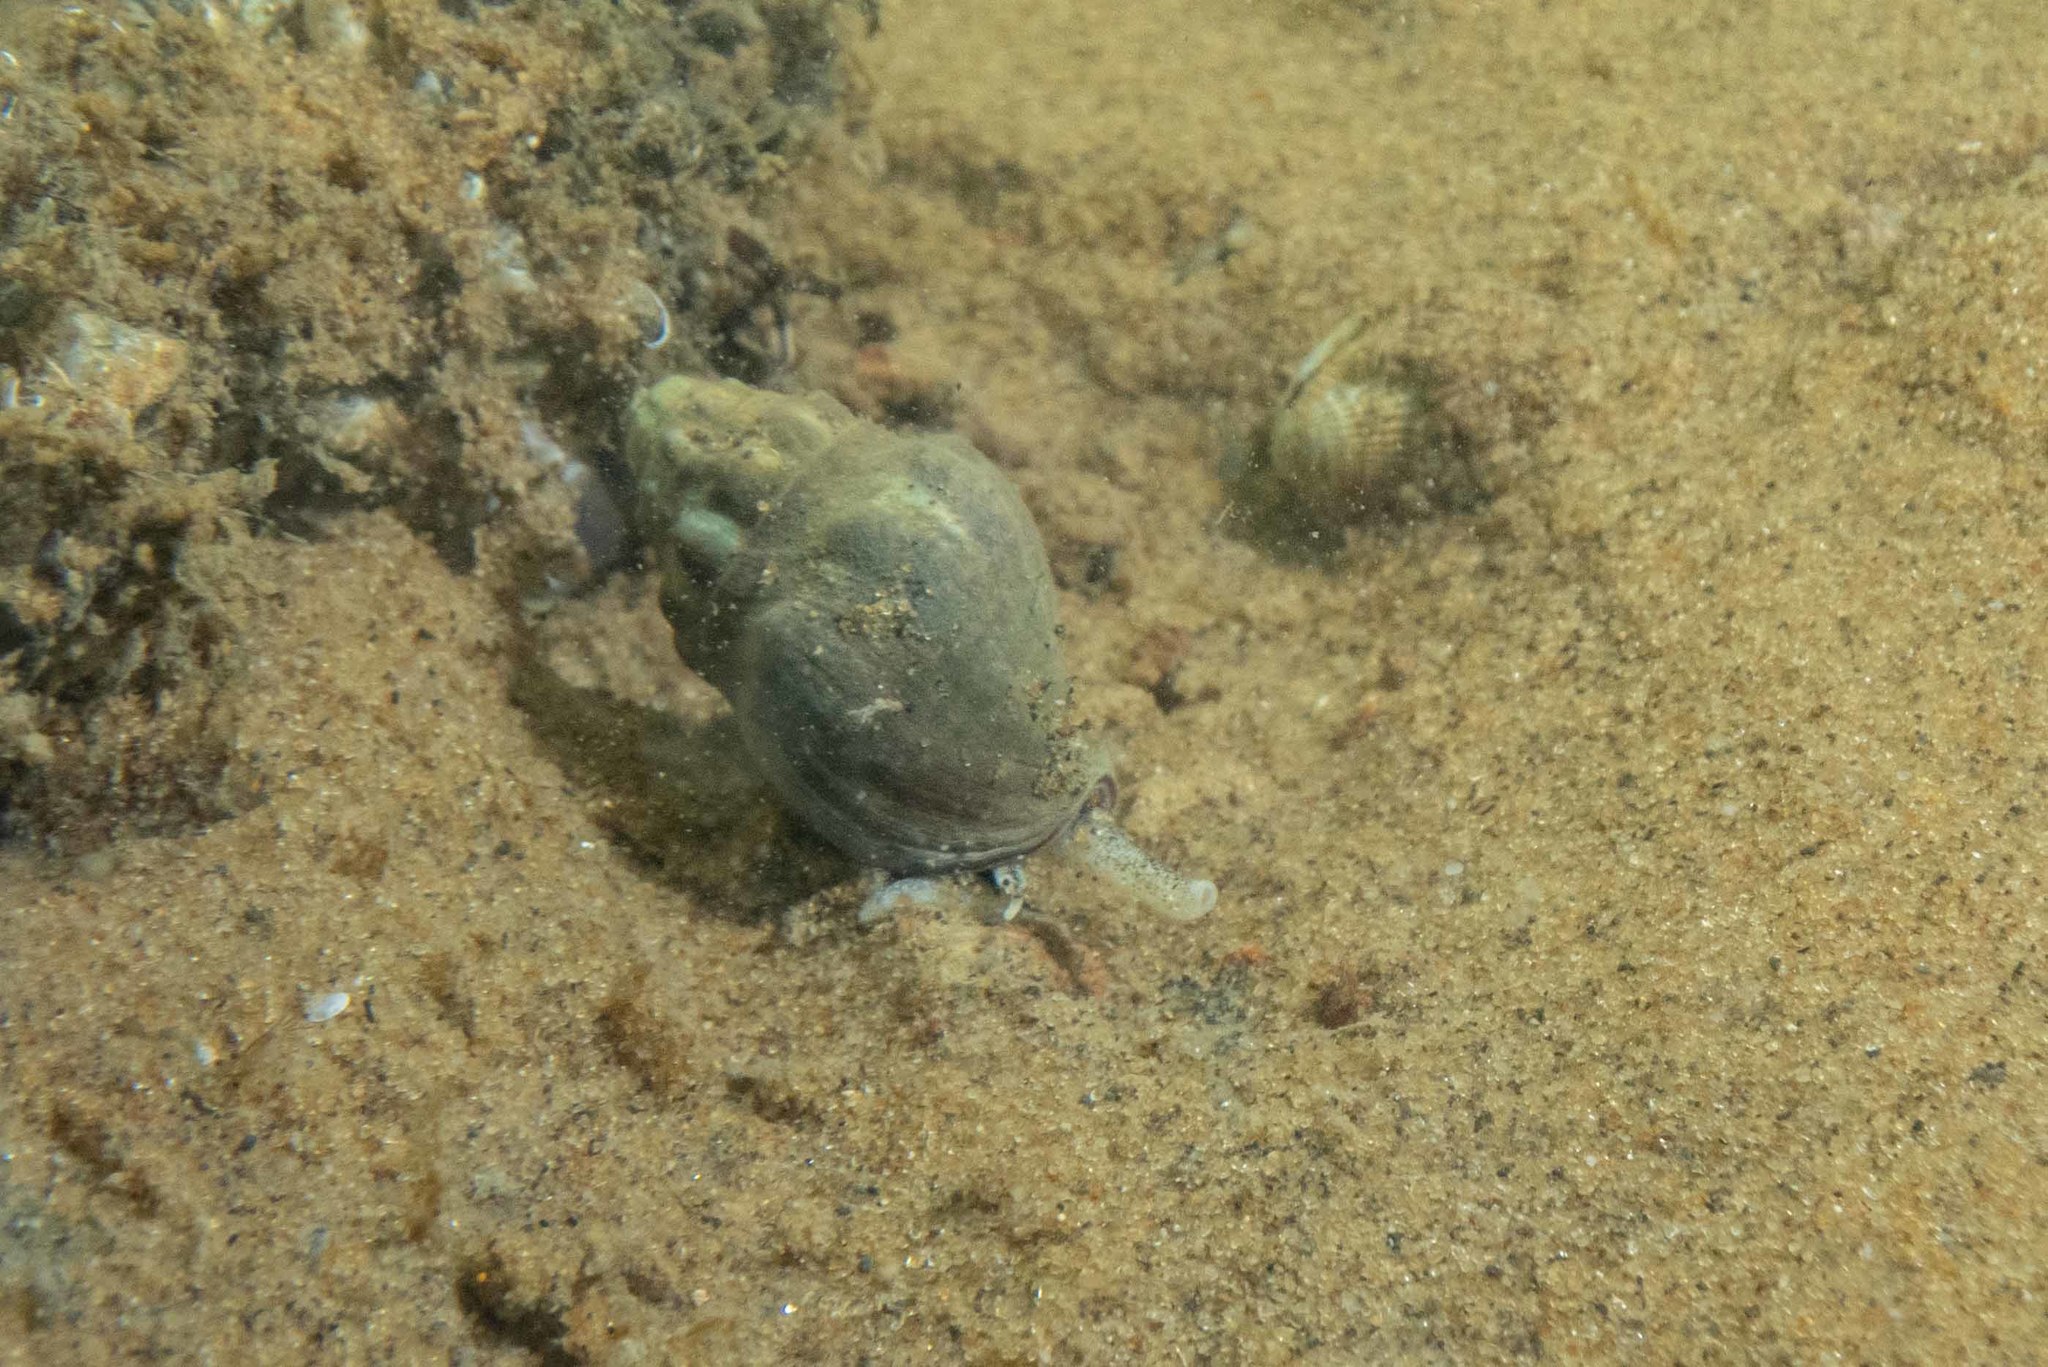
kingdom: Animalia
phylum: Mollusca
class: Gastropoda
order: Neogastropoda
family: Cominellidae
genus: Cominella
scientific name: Cominella glandiformis
